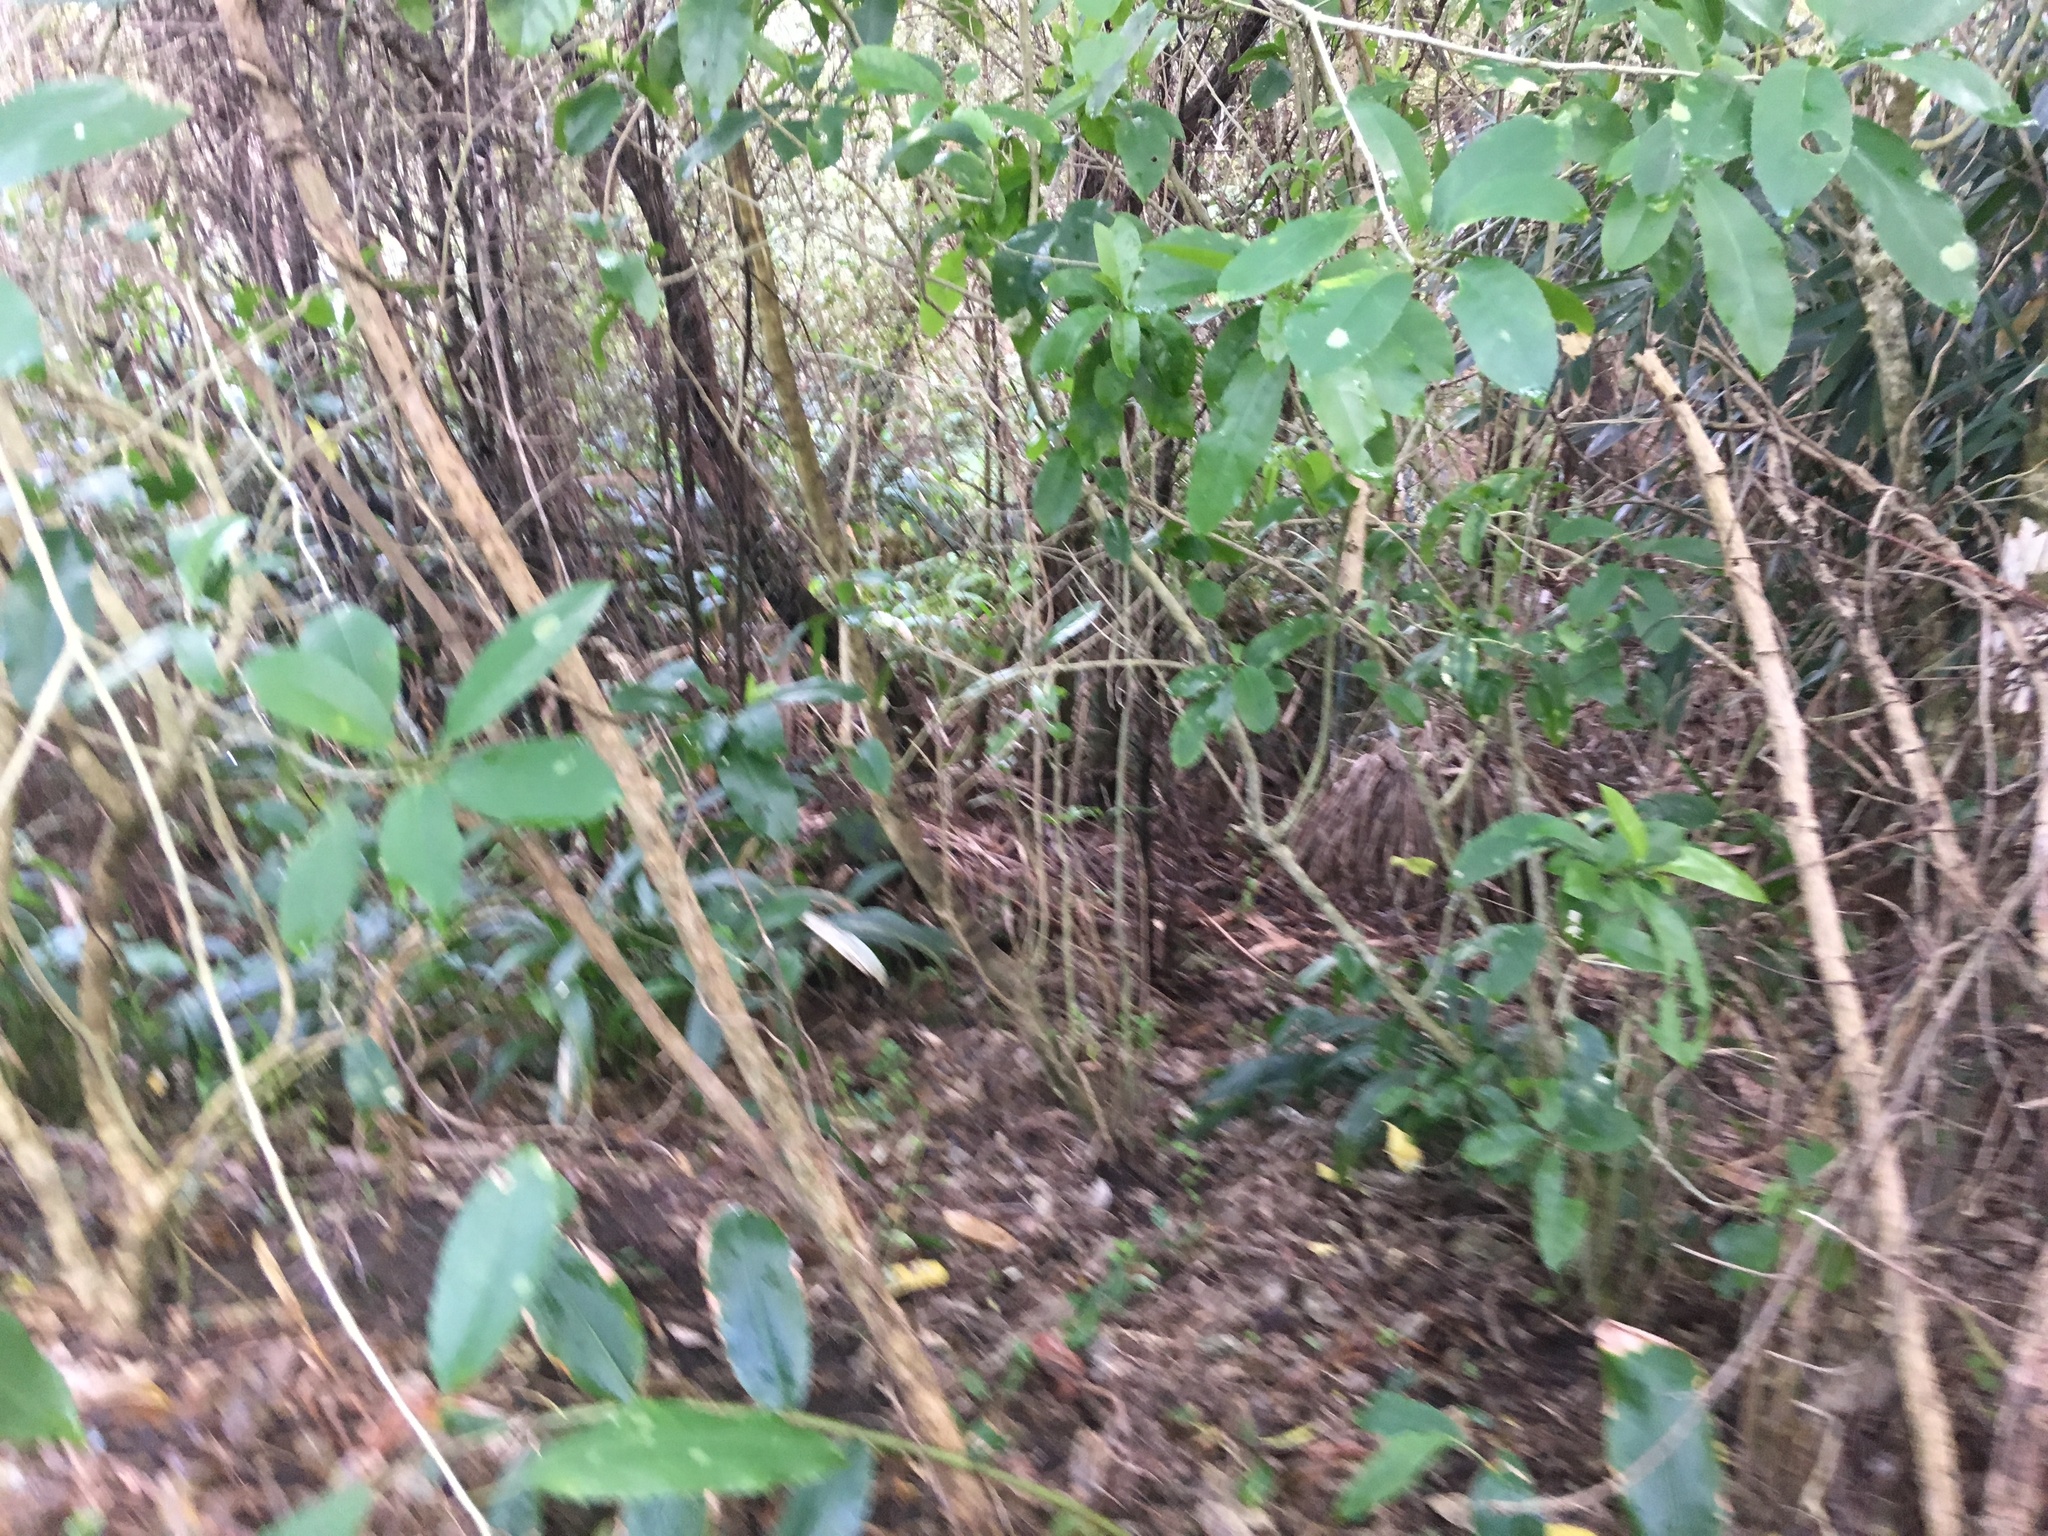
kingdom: Plantae
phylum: Tracheophyta
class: Magnoliopsida
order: Malpighiales
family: Violaceae
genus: Melicytus
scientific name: Melicytus ramiflorus
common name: Mahoe
